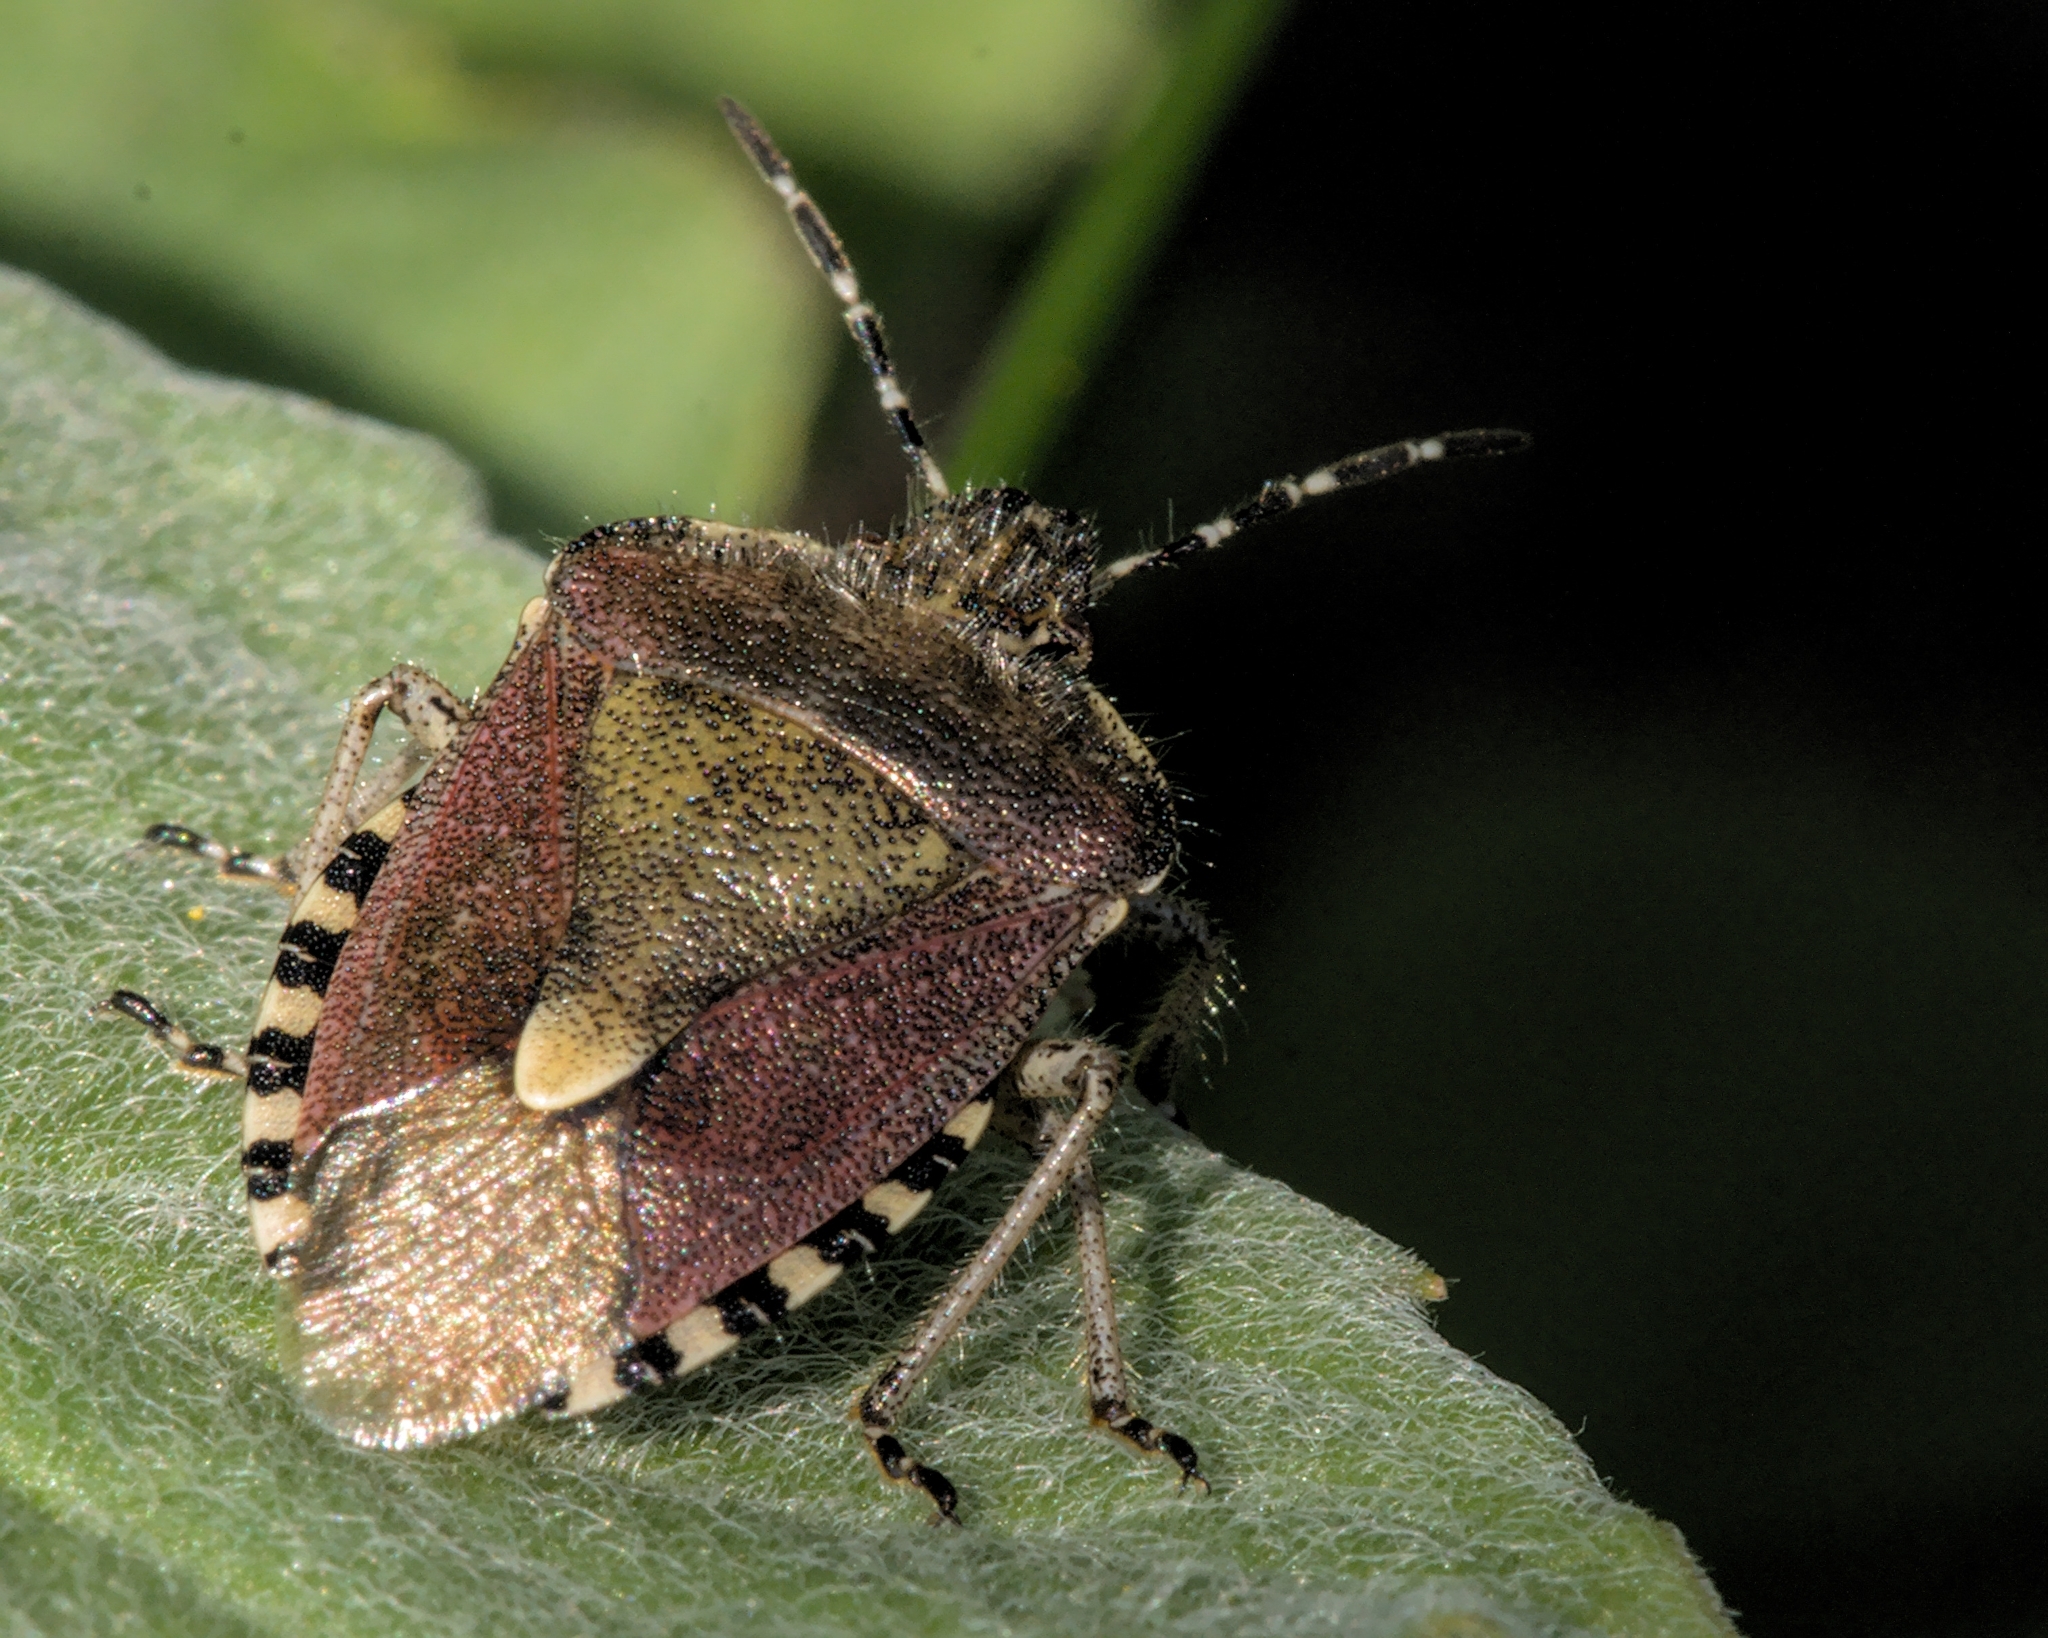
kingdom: Animalia
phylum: Arthropoda
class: Insecta
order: Hemiptera
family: Pentatomidae
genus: Dolycoris
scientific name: Dolycoris baccarum
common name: Sloe bug
